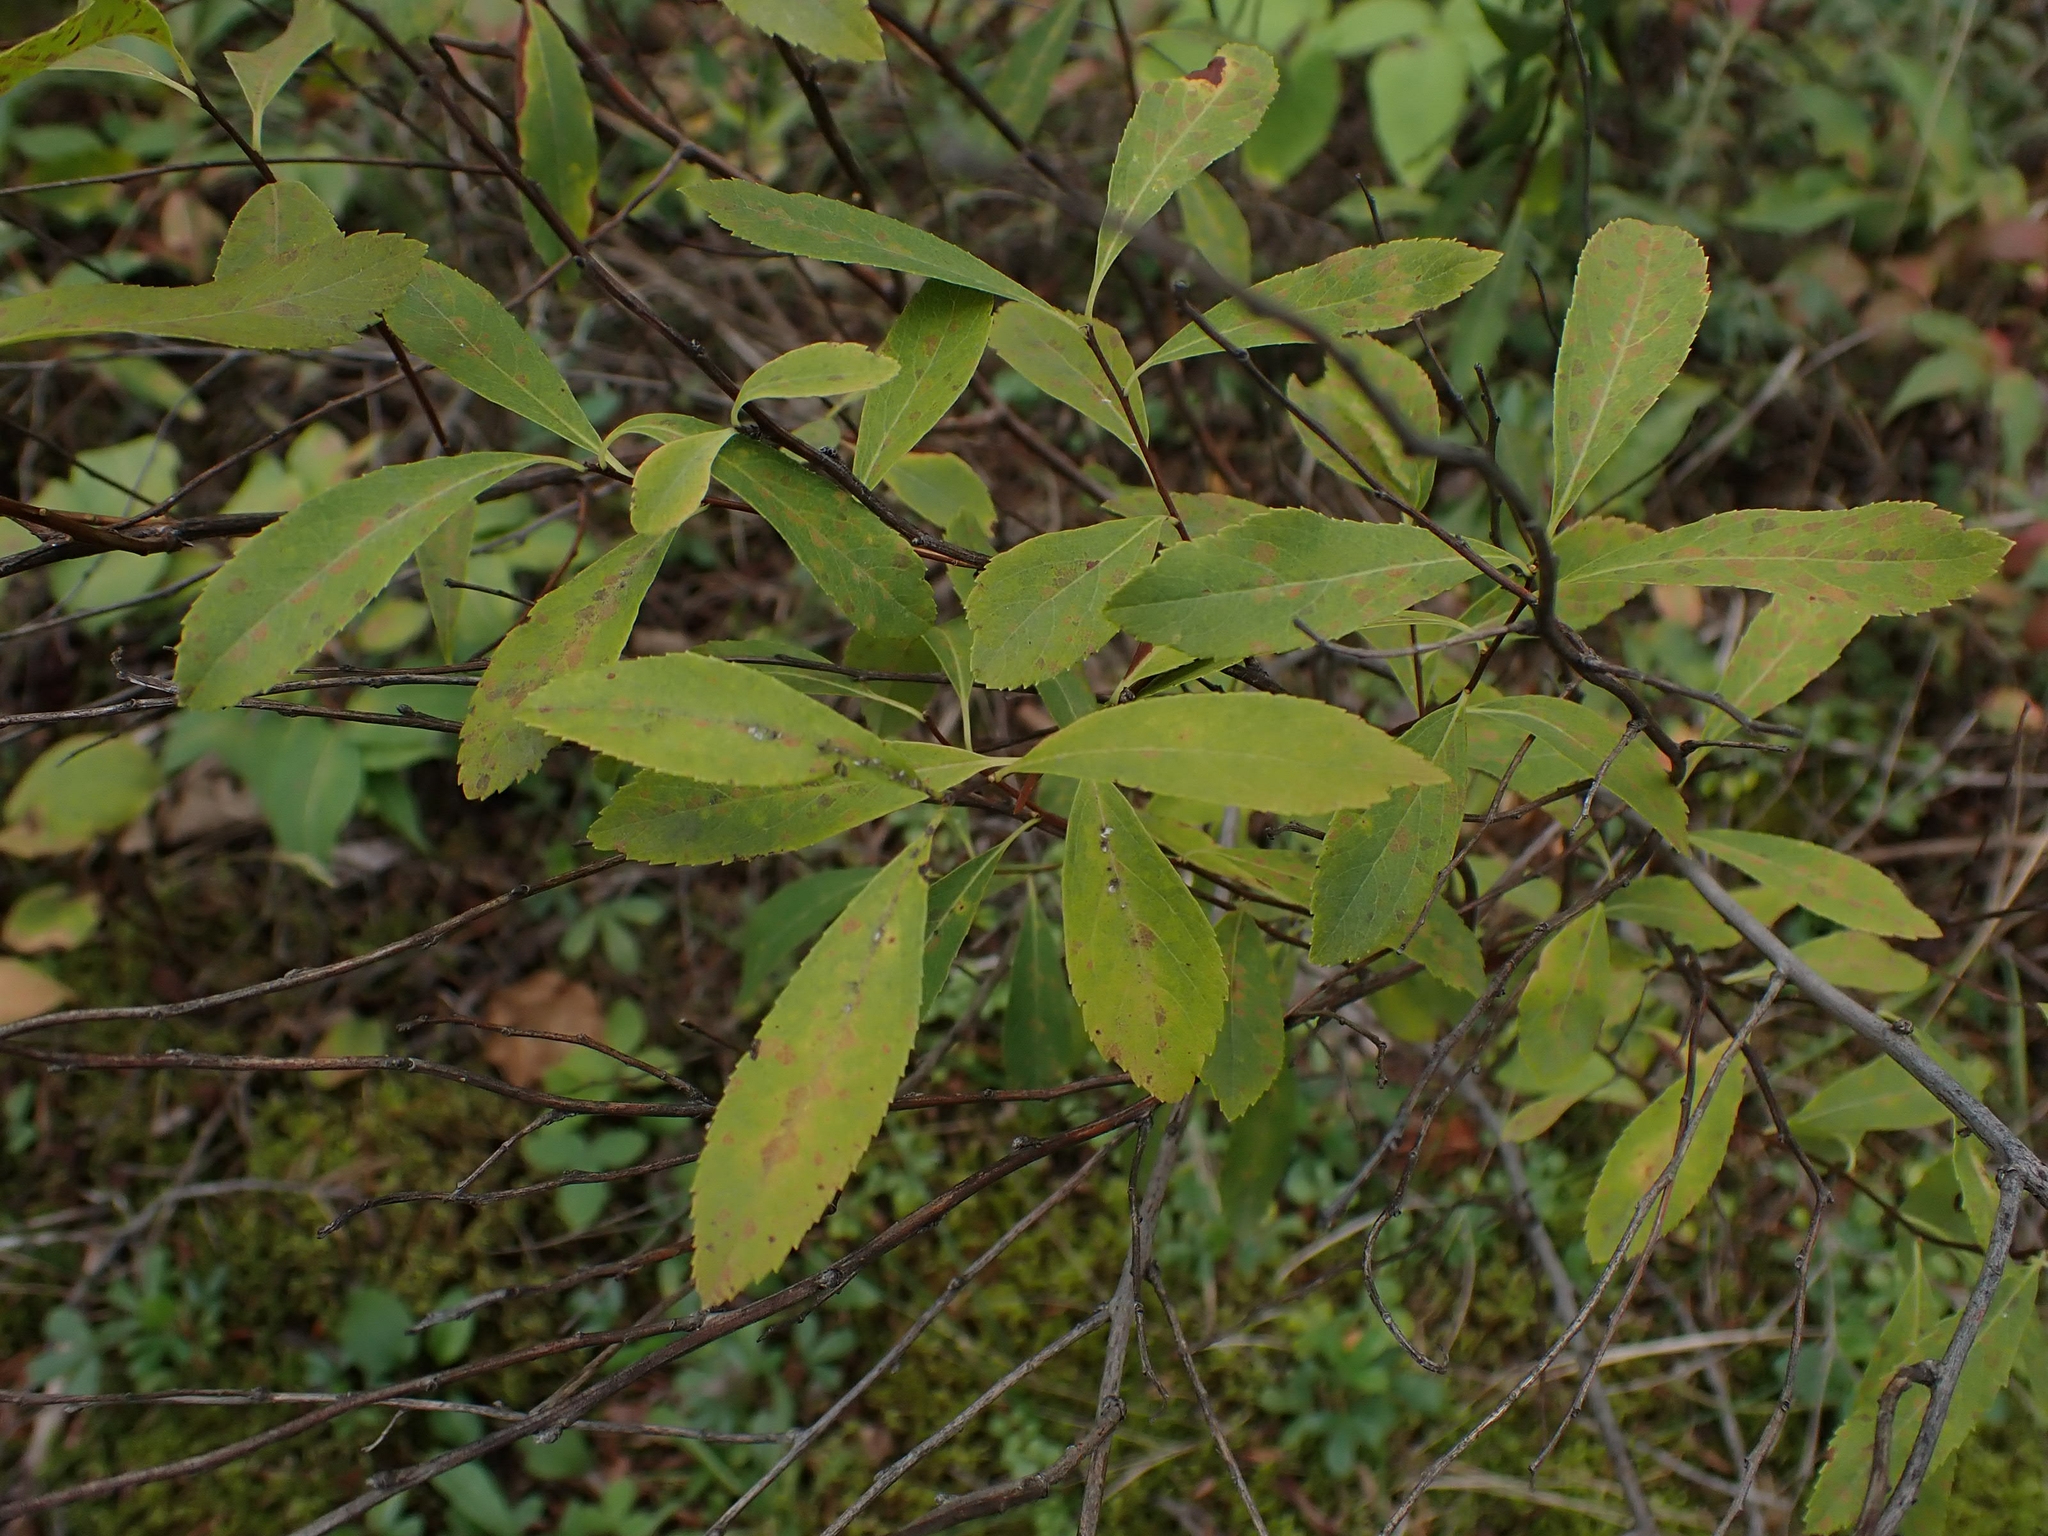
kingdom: Plantae
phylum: Tracheophyta
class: Magnoliopsida
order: Rosales
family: Rosaceae
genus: Spiraea
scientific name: Spiraea alba
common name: Pale bridewort
